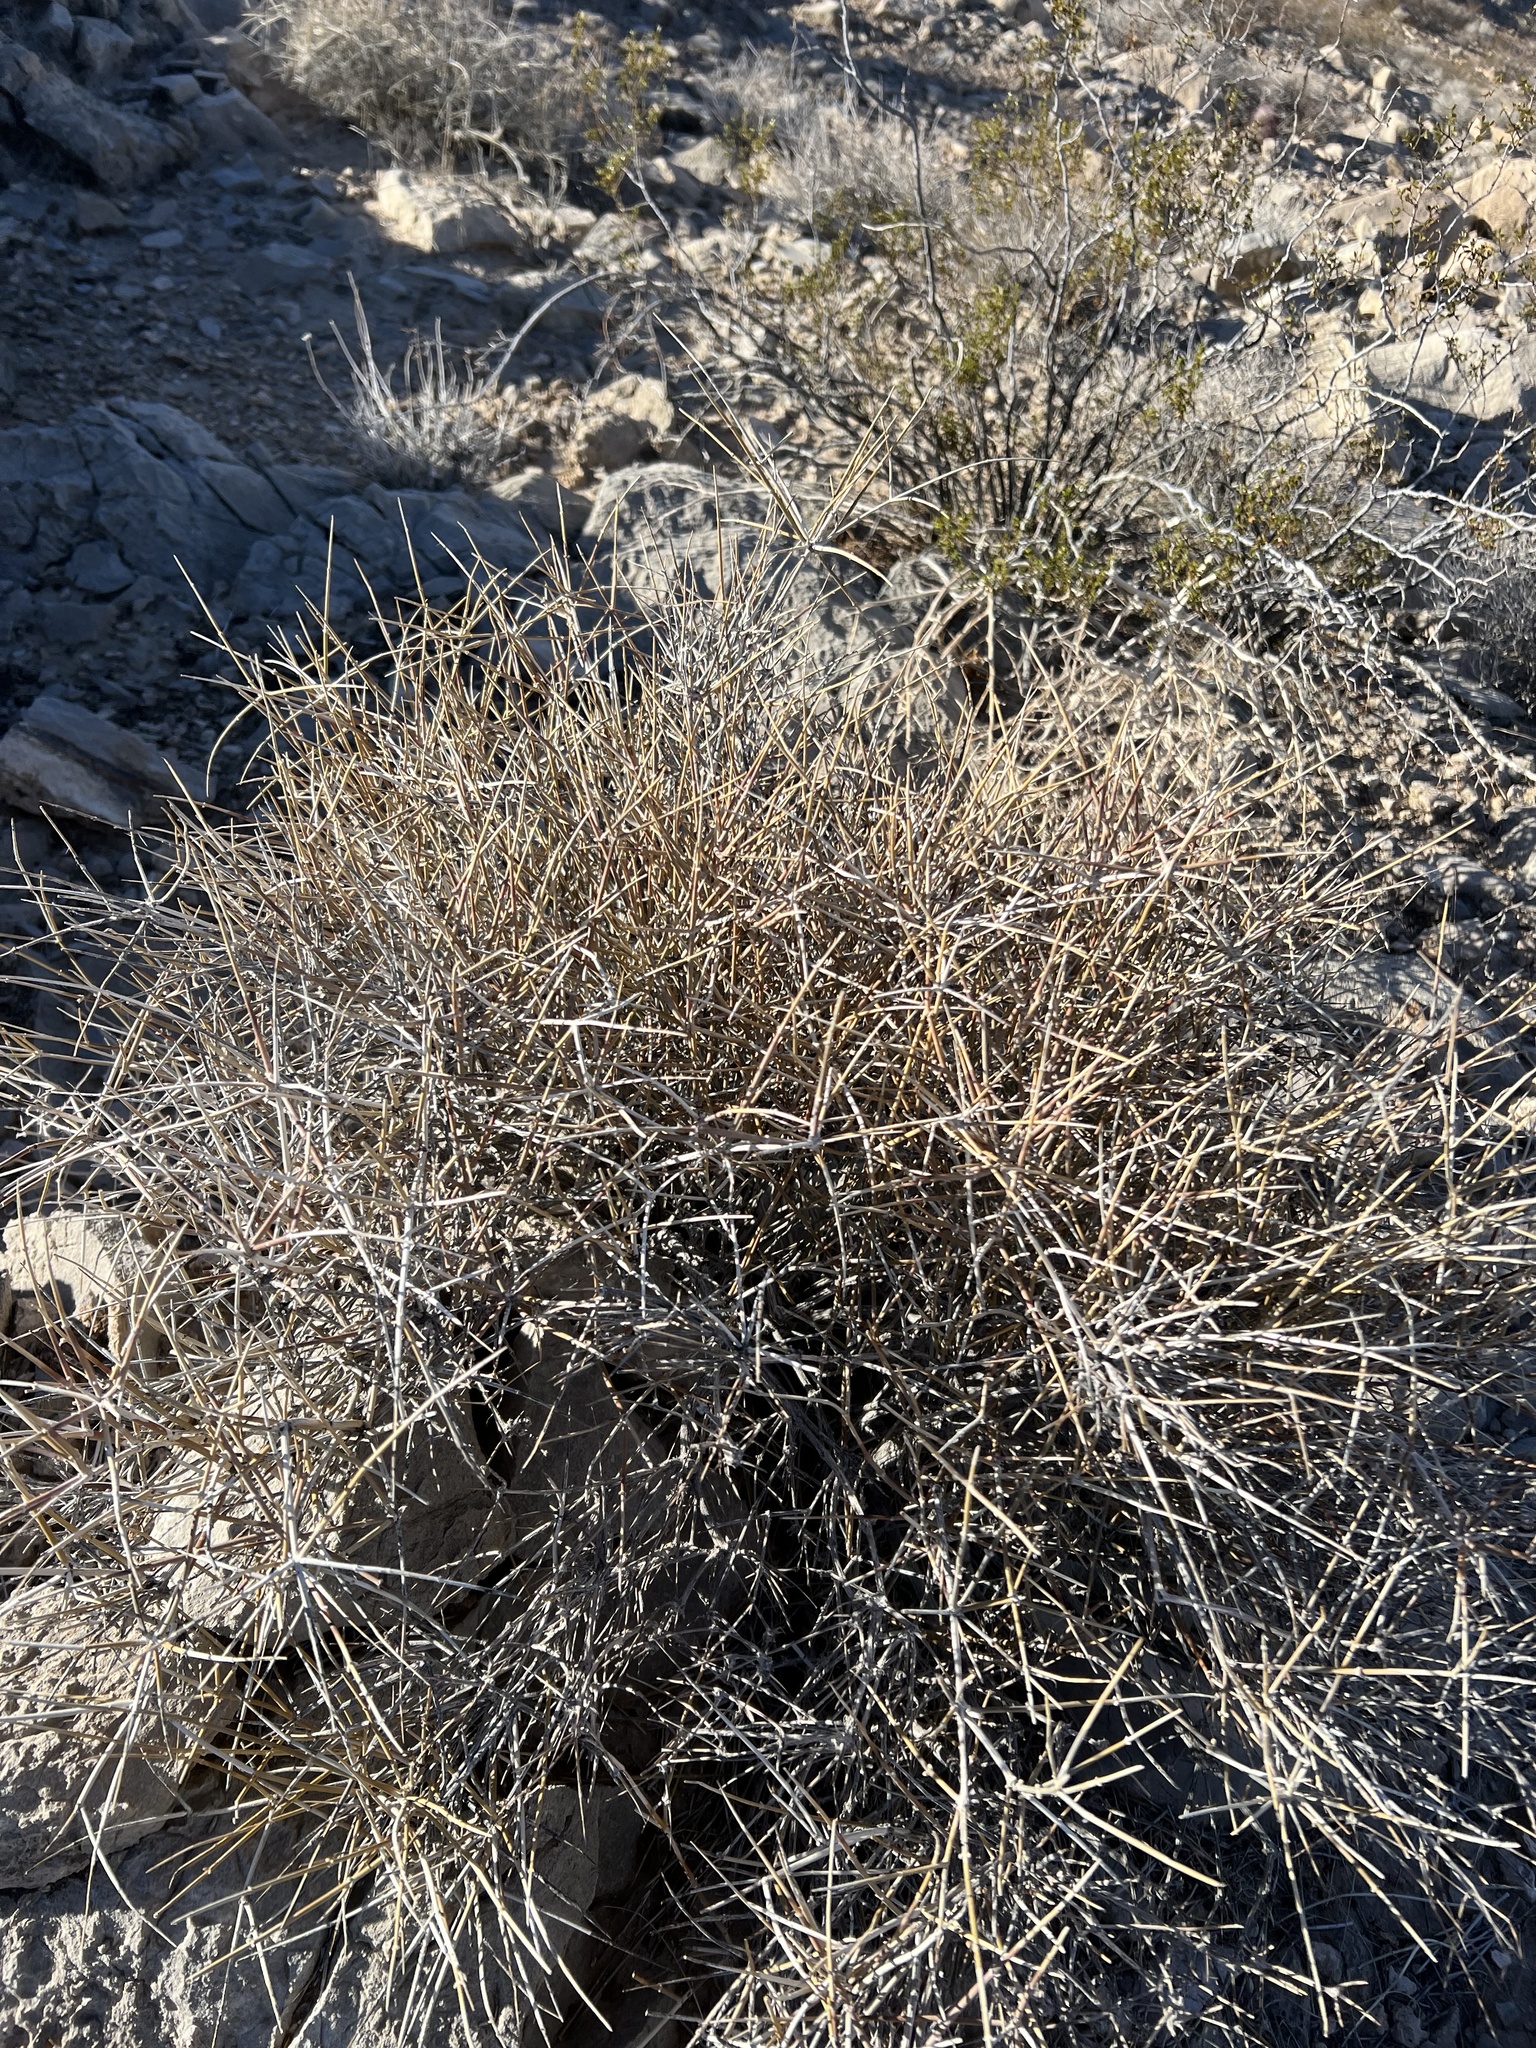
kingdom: Plantae
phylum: Tracheophyta
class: Gnetopsida
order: Ephedrales
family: Ephedraceae
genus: Ephedra
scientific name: Ephedra nevadensis
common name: Gray ephedra
